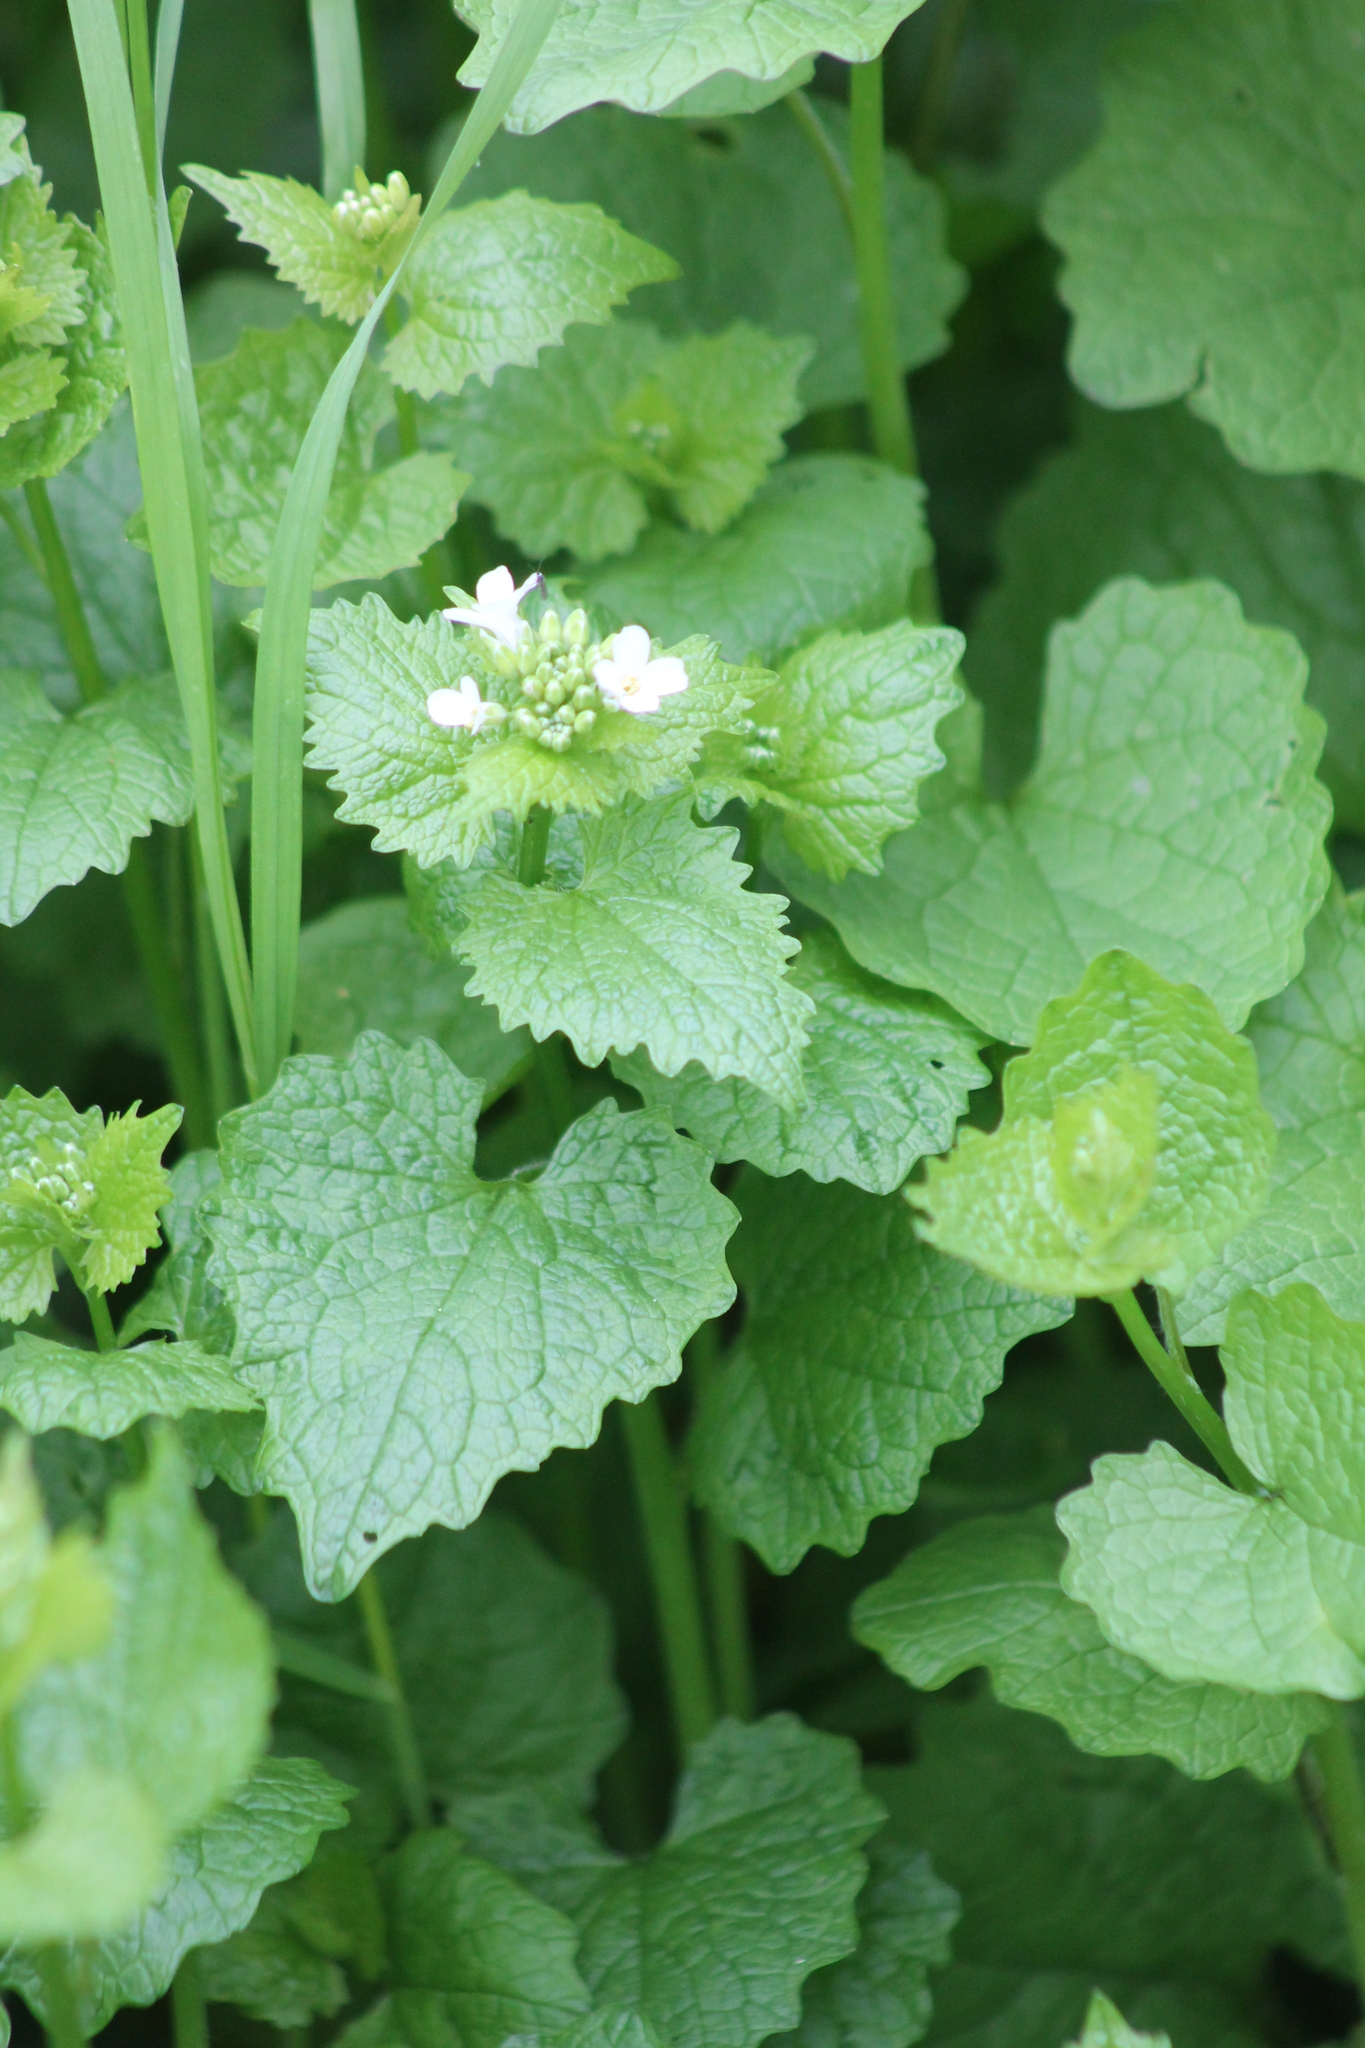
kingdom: Plantae
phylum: Tracheophyta
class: Magnoliopsida
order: Brassicales
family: Brassicaceae
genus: Alliaria
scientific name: Alliaria petiolata
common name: Garlic mustard
